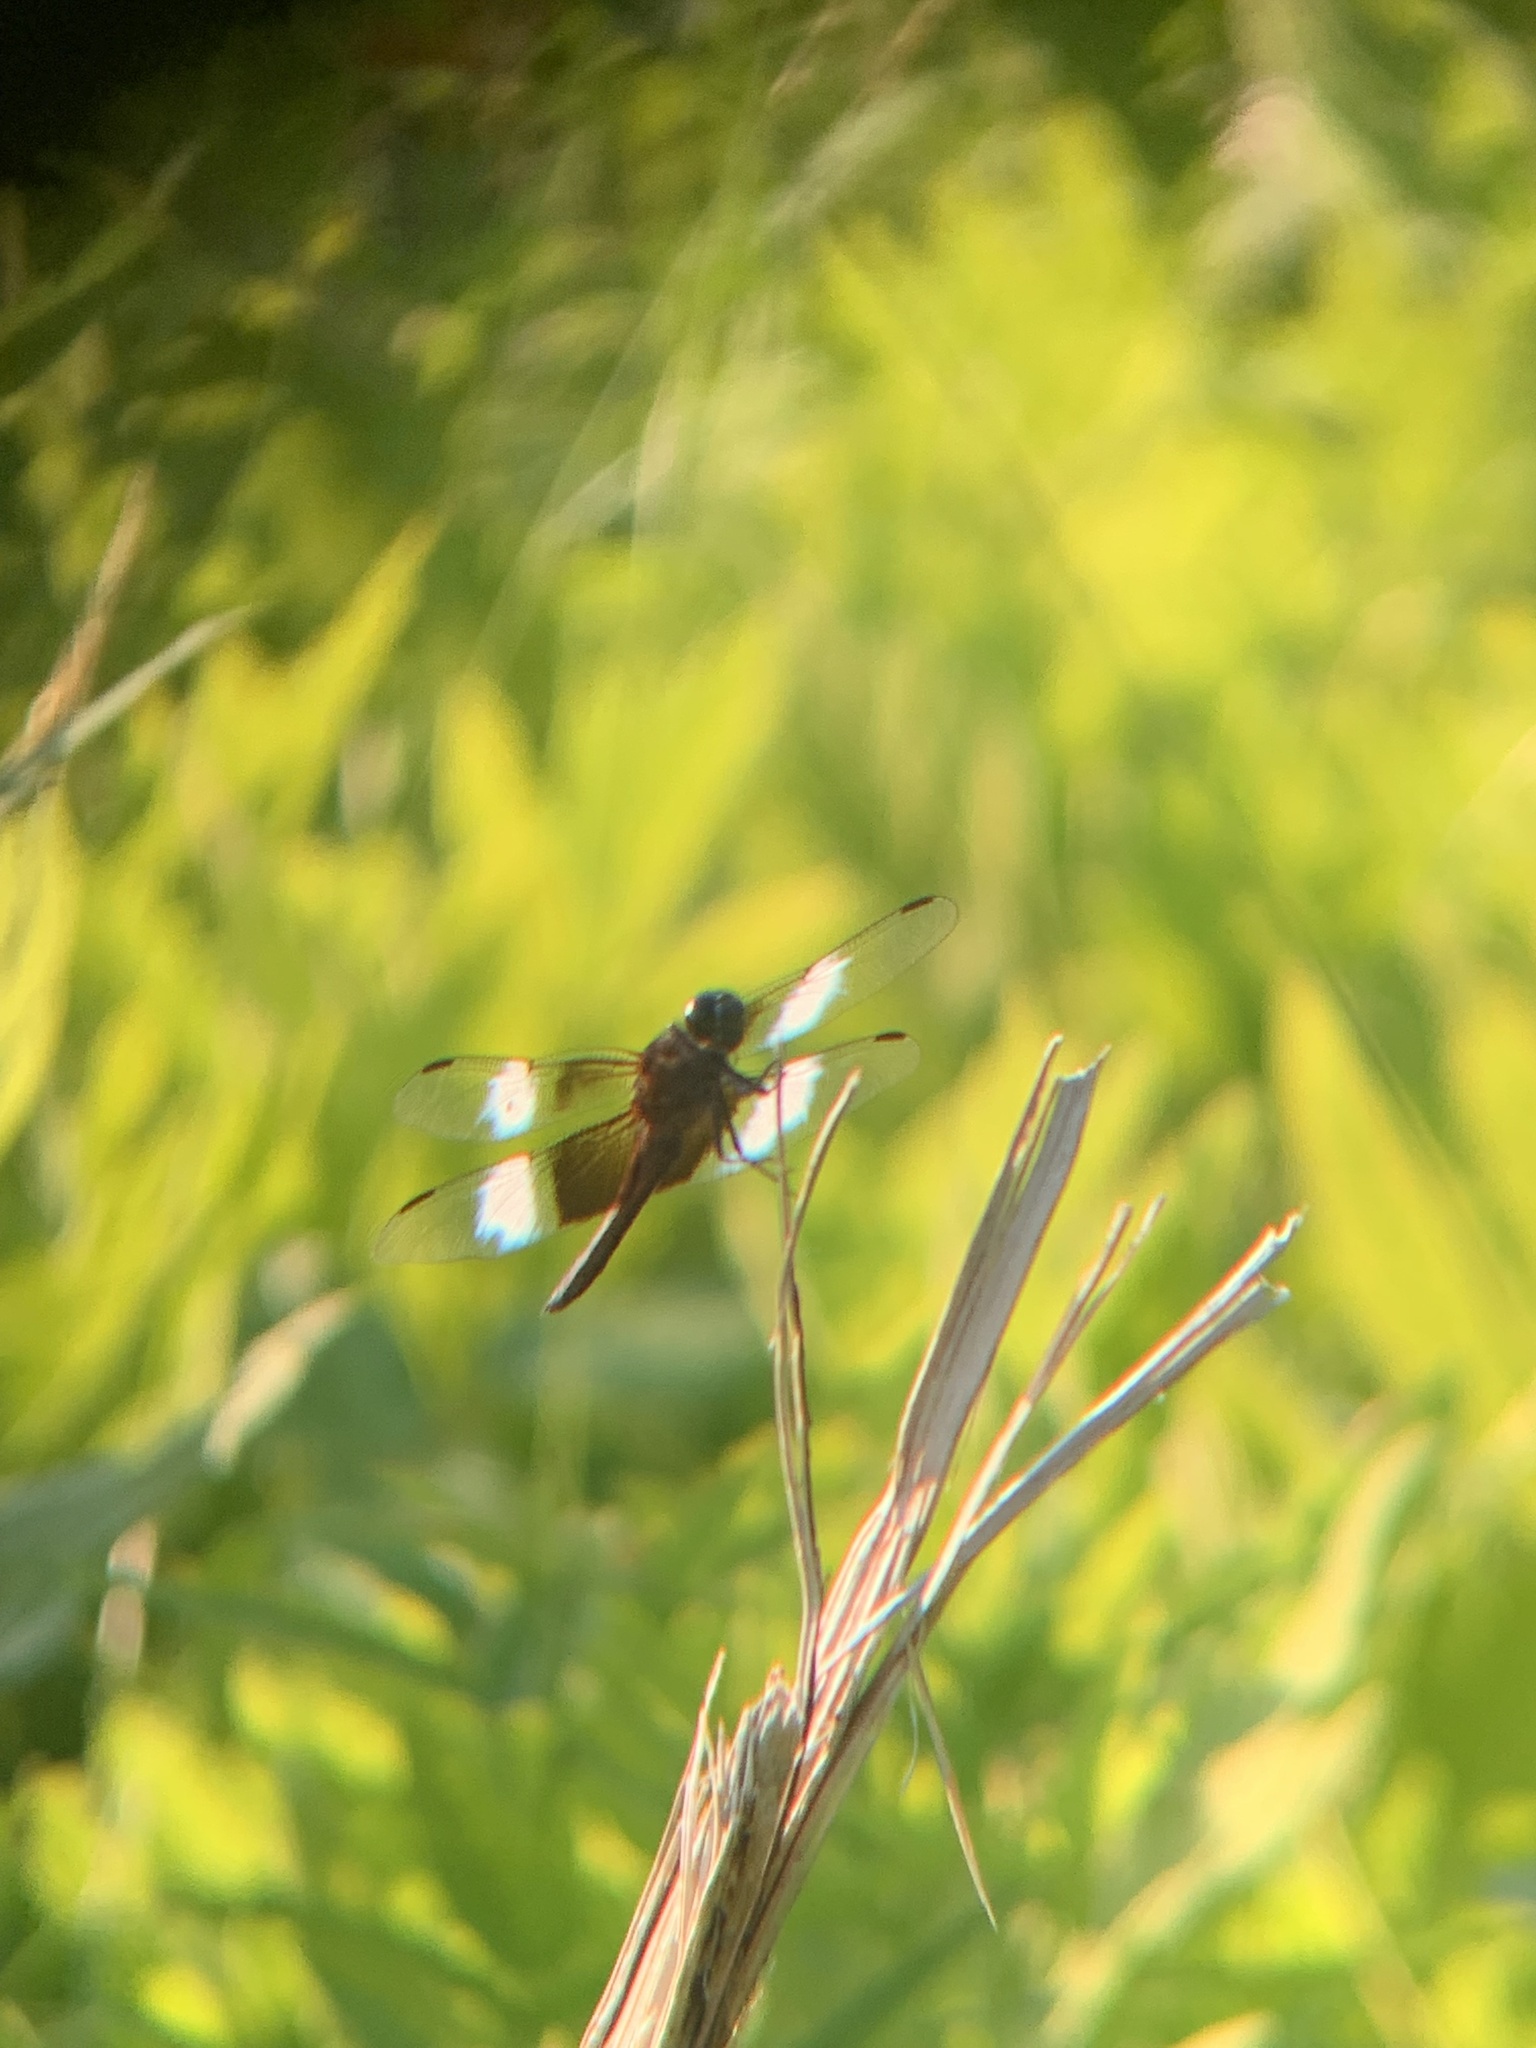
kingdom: Animalia
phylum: Arthropoda
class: Insecta
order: Odonata
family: Libellulidae
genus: Libellula
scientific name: Libellula luctuosa
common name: Widow skimmer
